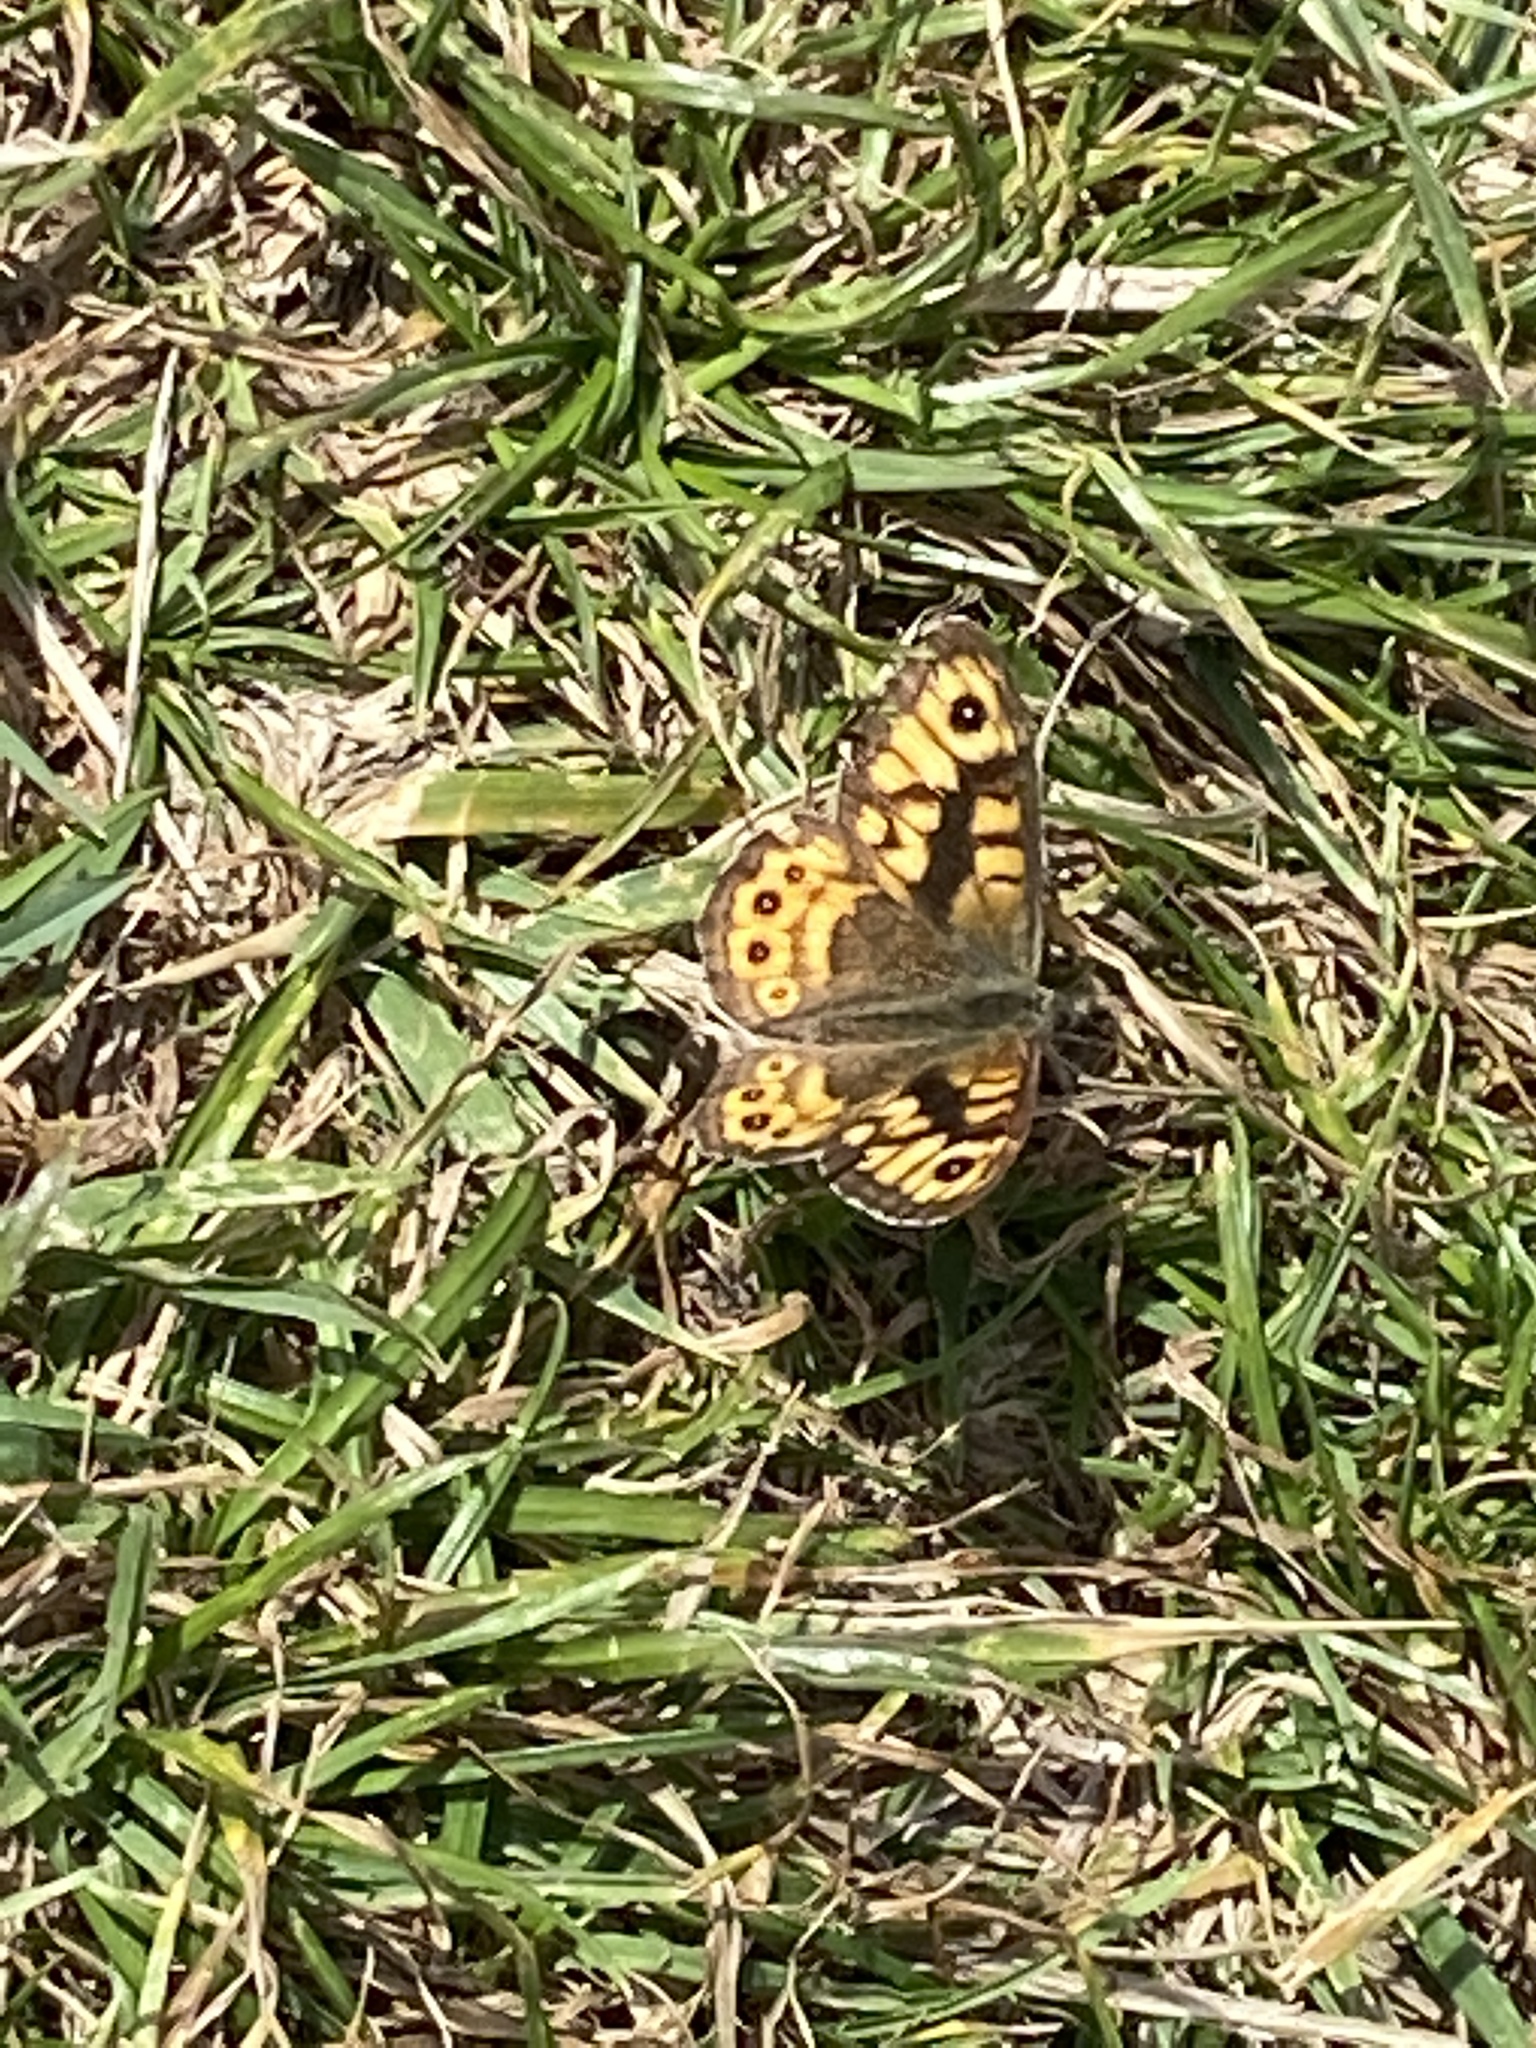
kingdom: Animalia
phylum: Arthropoda
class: Insecta
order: Lepidoptera
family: Nymphalidae
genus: Pararge
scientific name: Pararge Lasiommata megera
